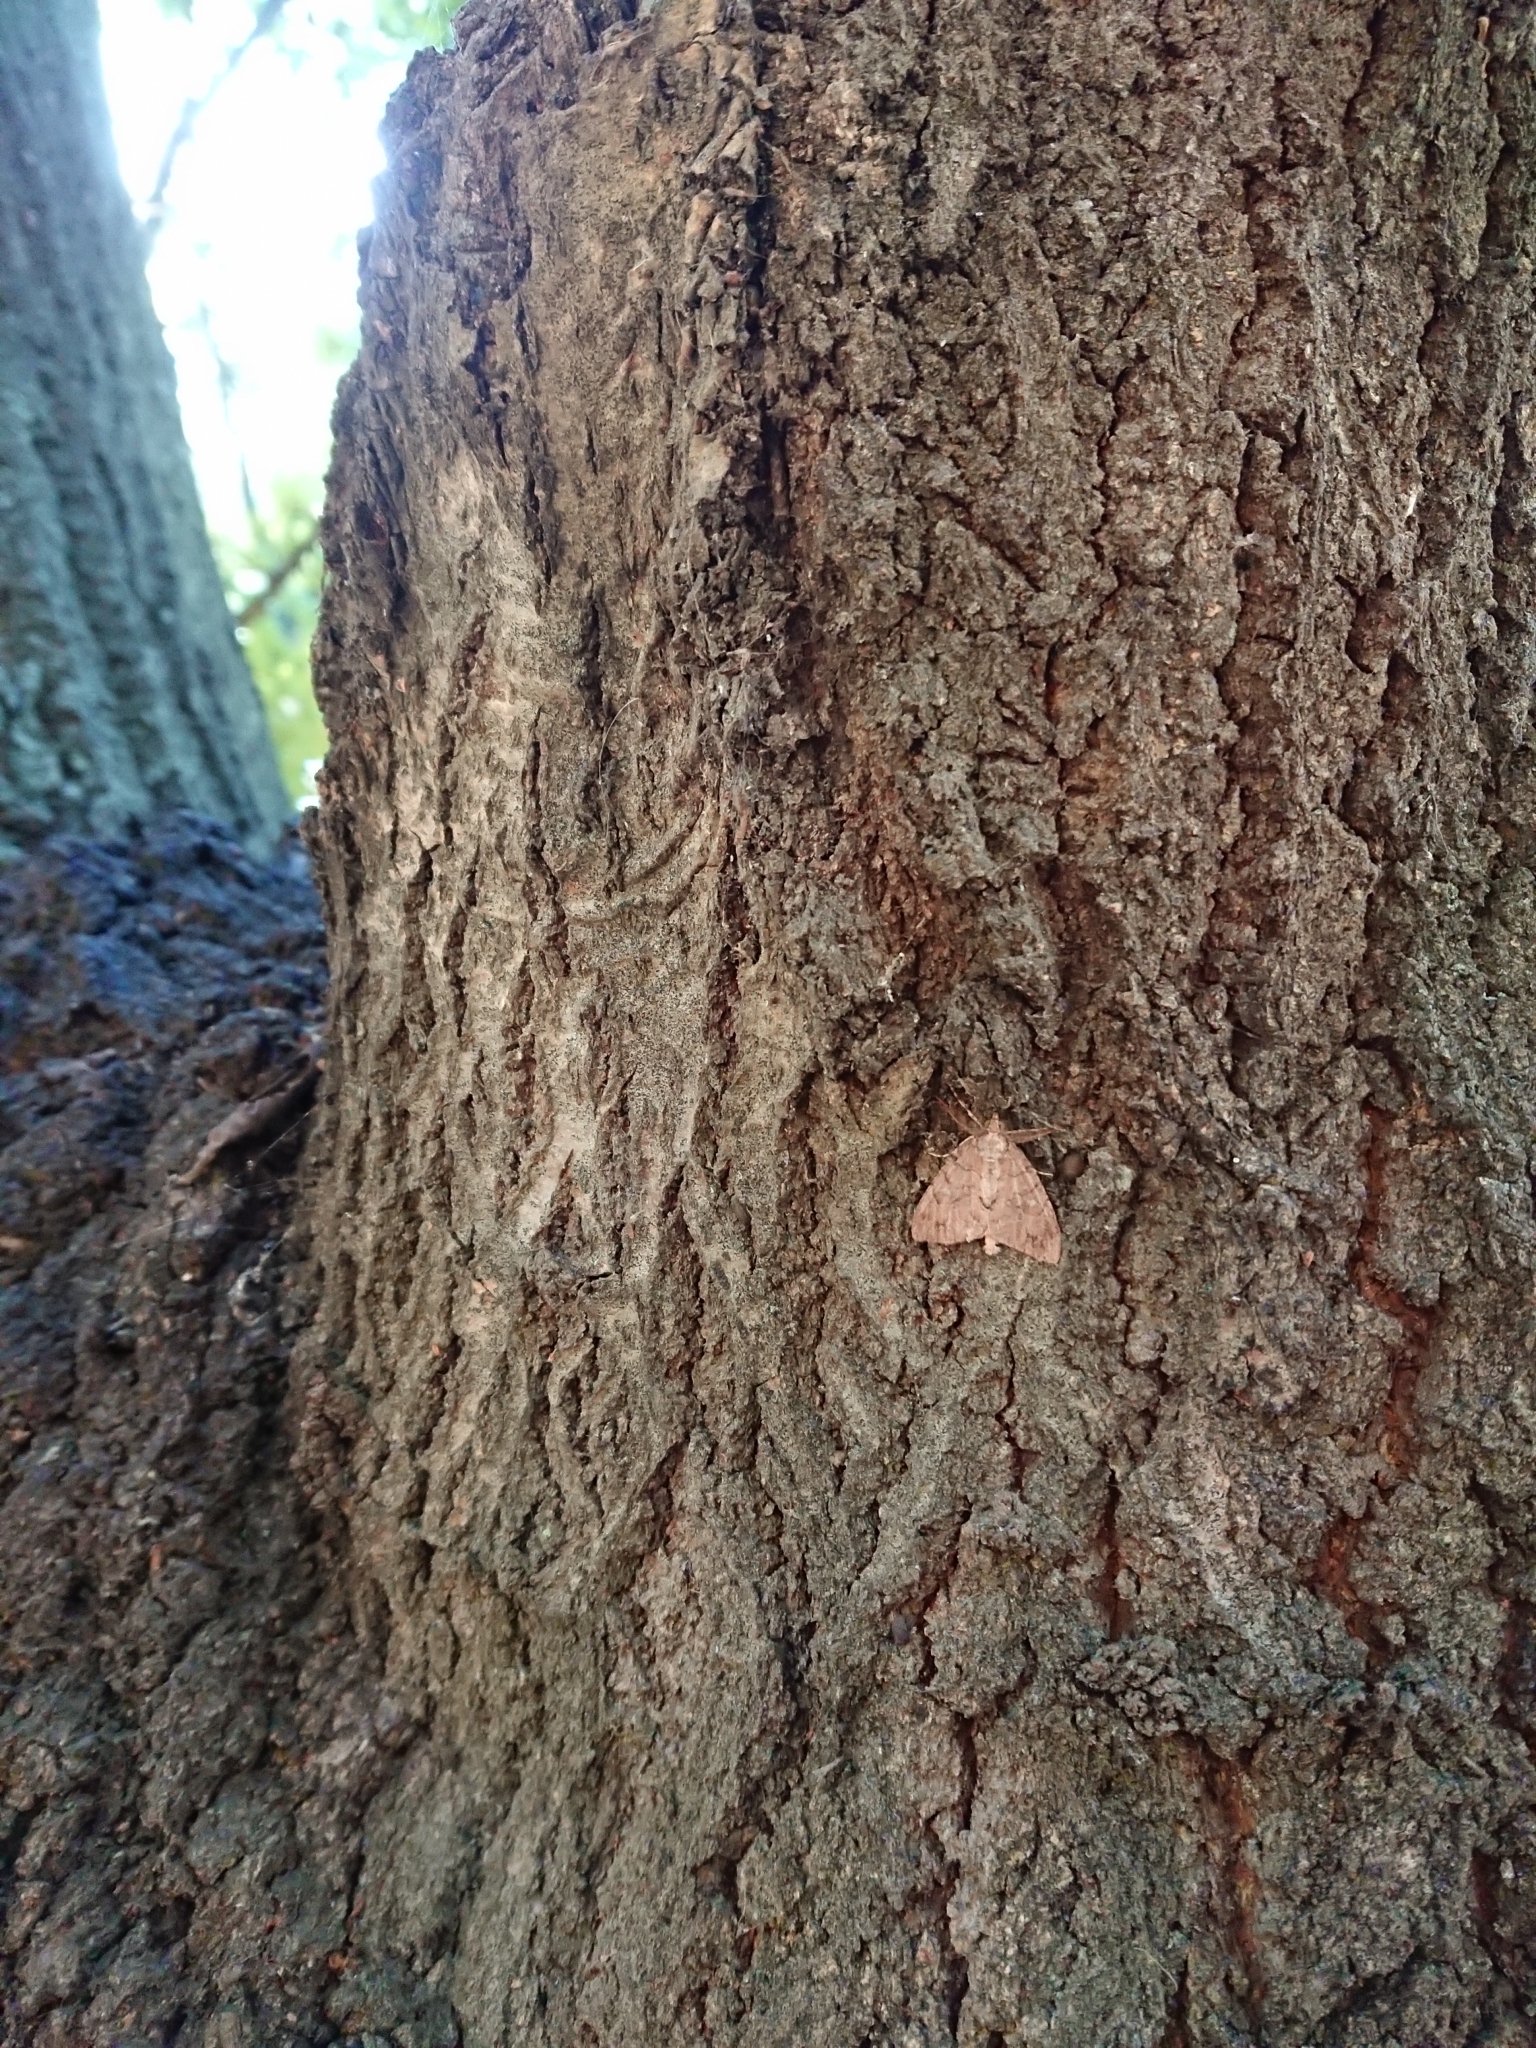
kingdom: Animalia
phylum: Arthropoda
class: Insecta
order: Lepidoptera
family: Geometridae
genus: Pseudocoremia
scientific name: Pseudocoremia suavis
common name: Common forest looper
